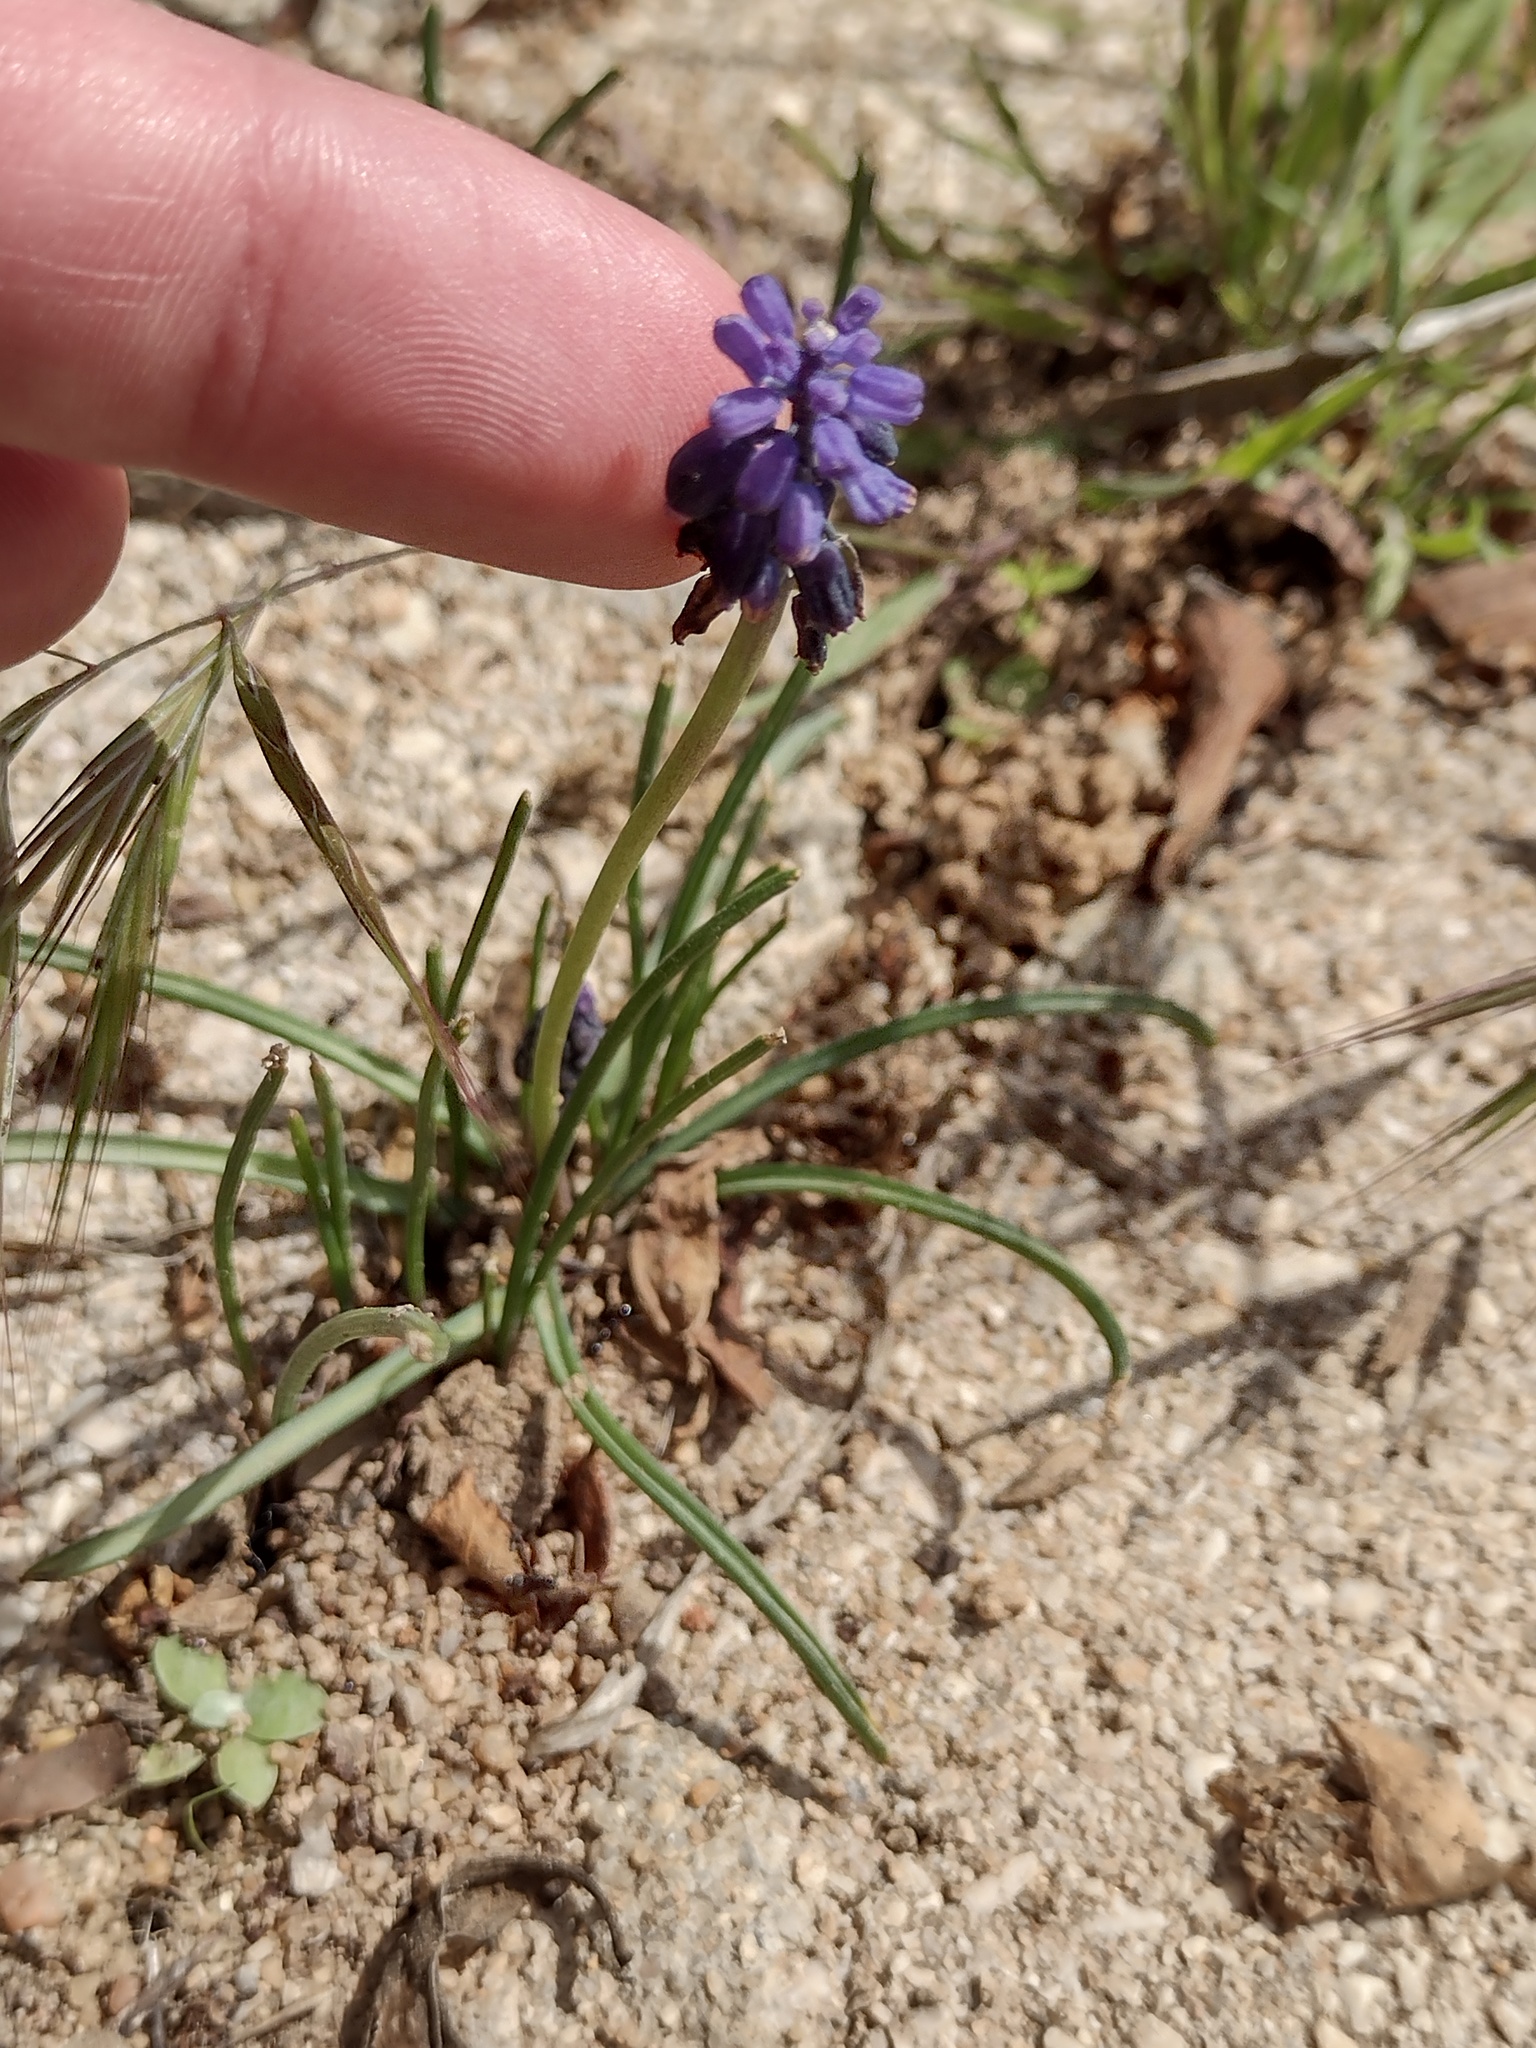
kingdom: Plantae
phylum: Tracheophyta
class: Liliopsida
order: Asparagales
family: Asparagaceae
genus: Muscari
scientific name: Muscari neglectum
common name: Grape-hyacinth
